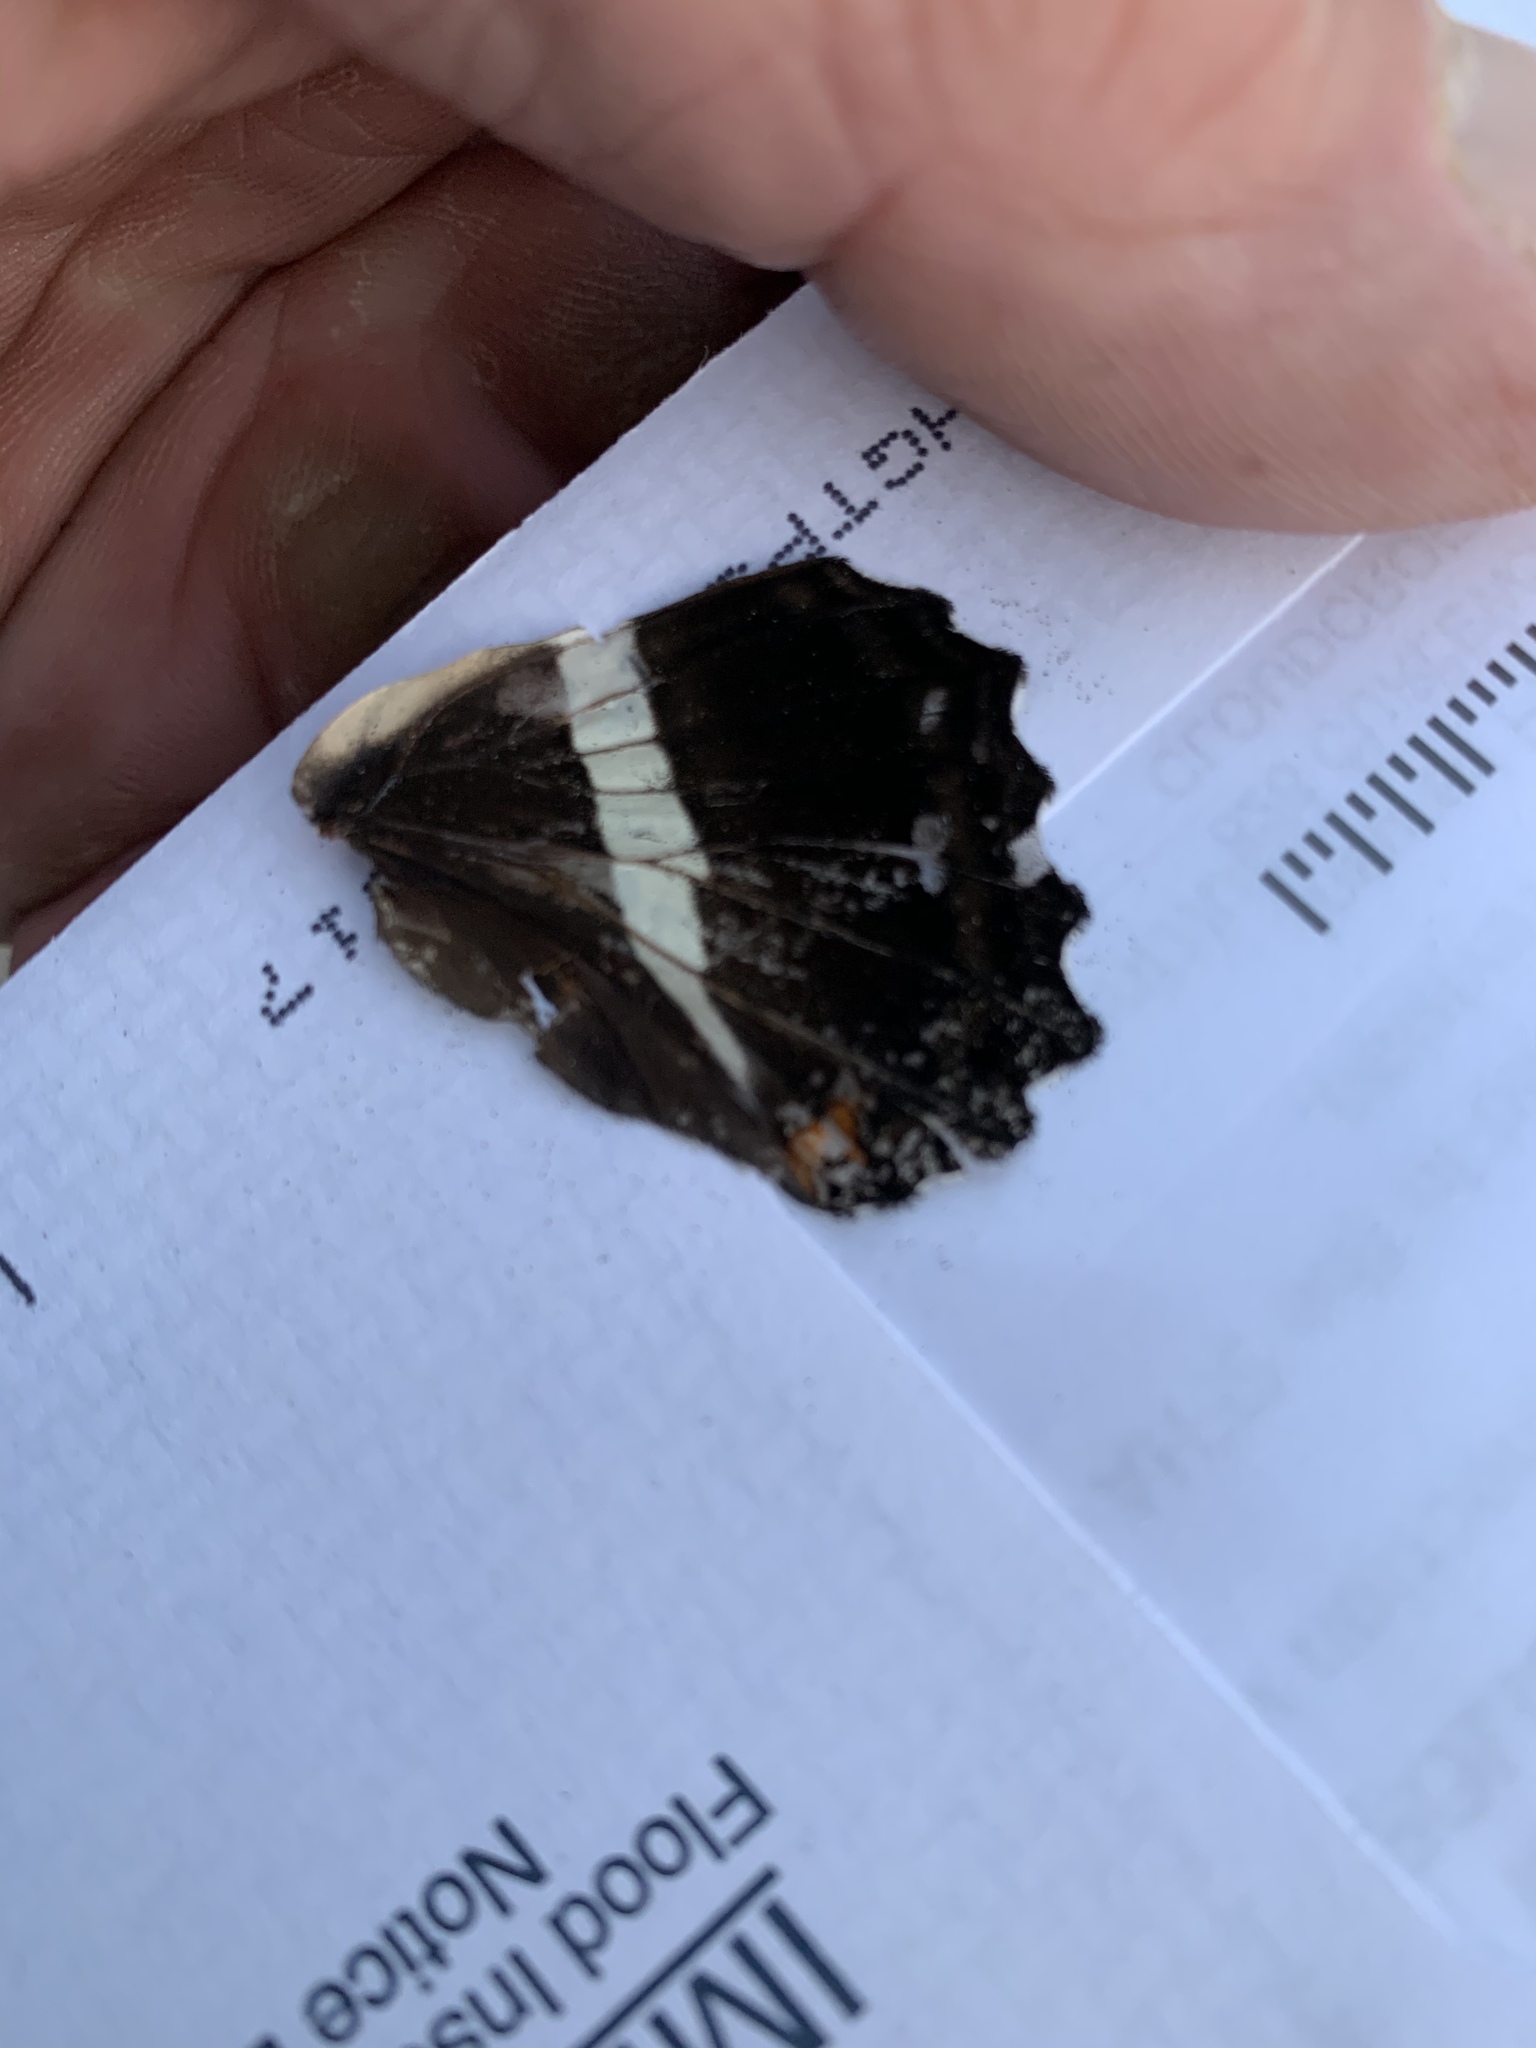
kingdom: Animalia
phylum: Arthropoda
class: Insecta
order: Lepidoptera
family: Nymphalidae
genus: Limenitis
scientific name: Limenitis bredowii
